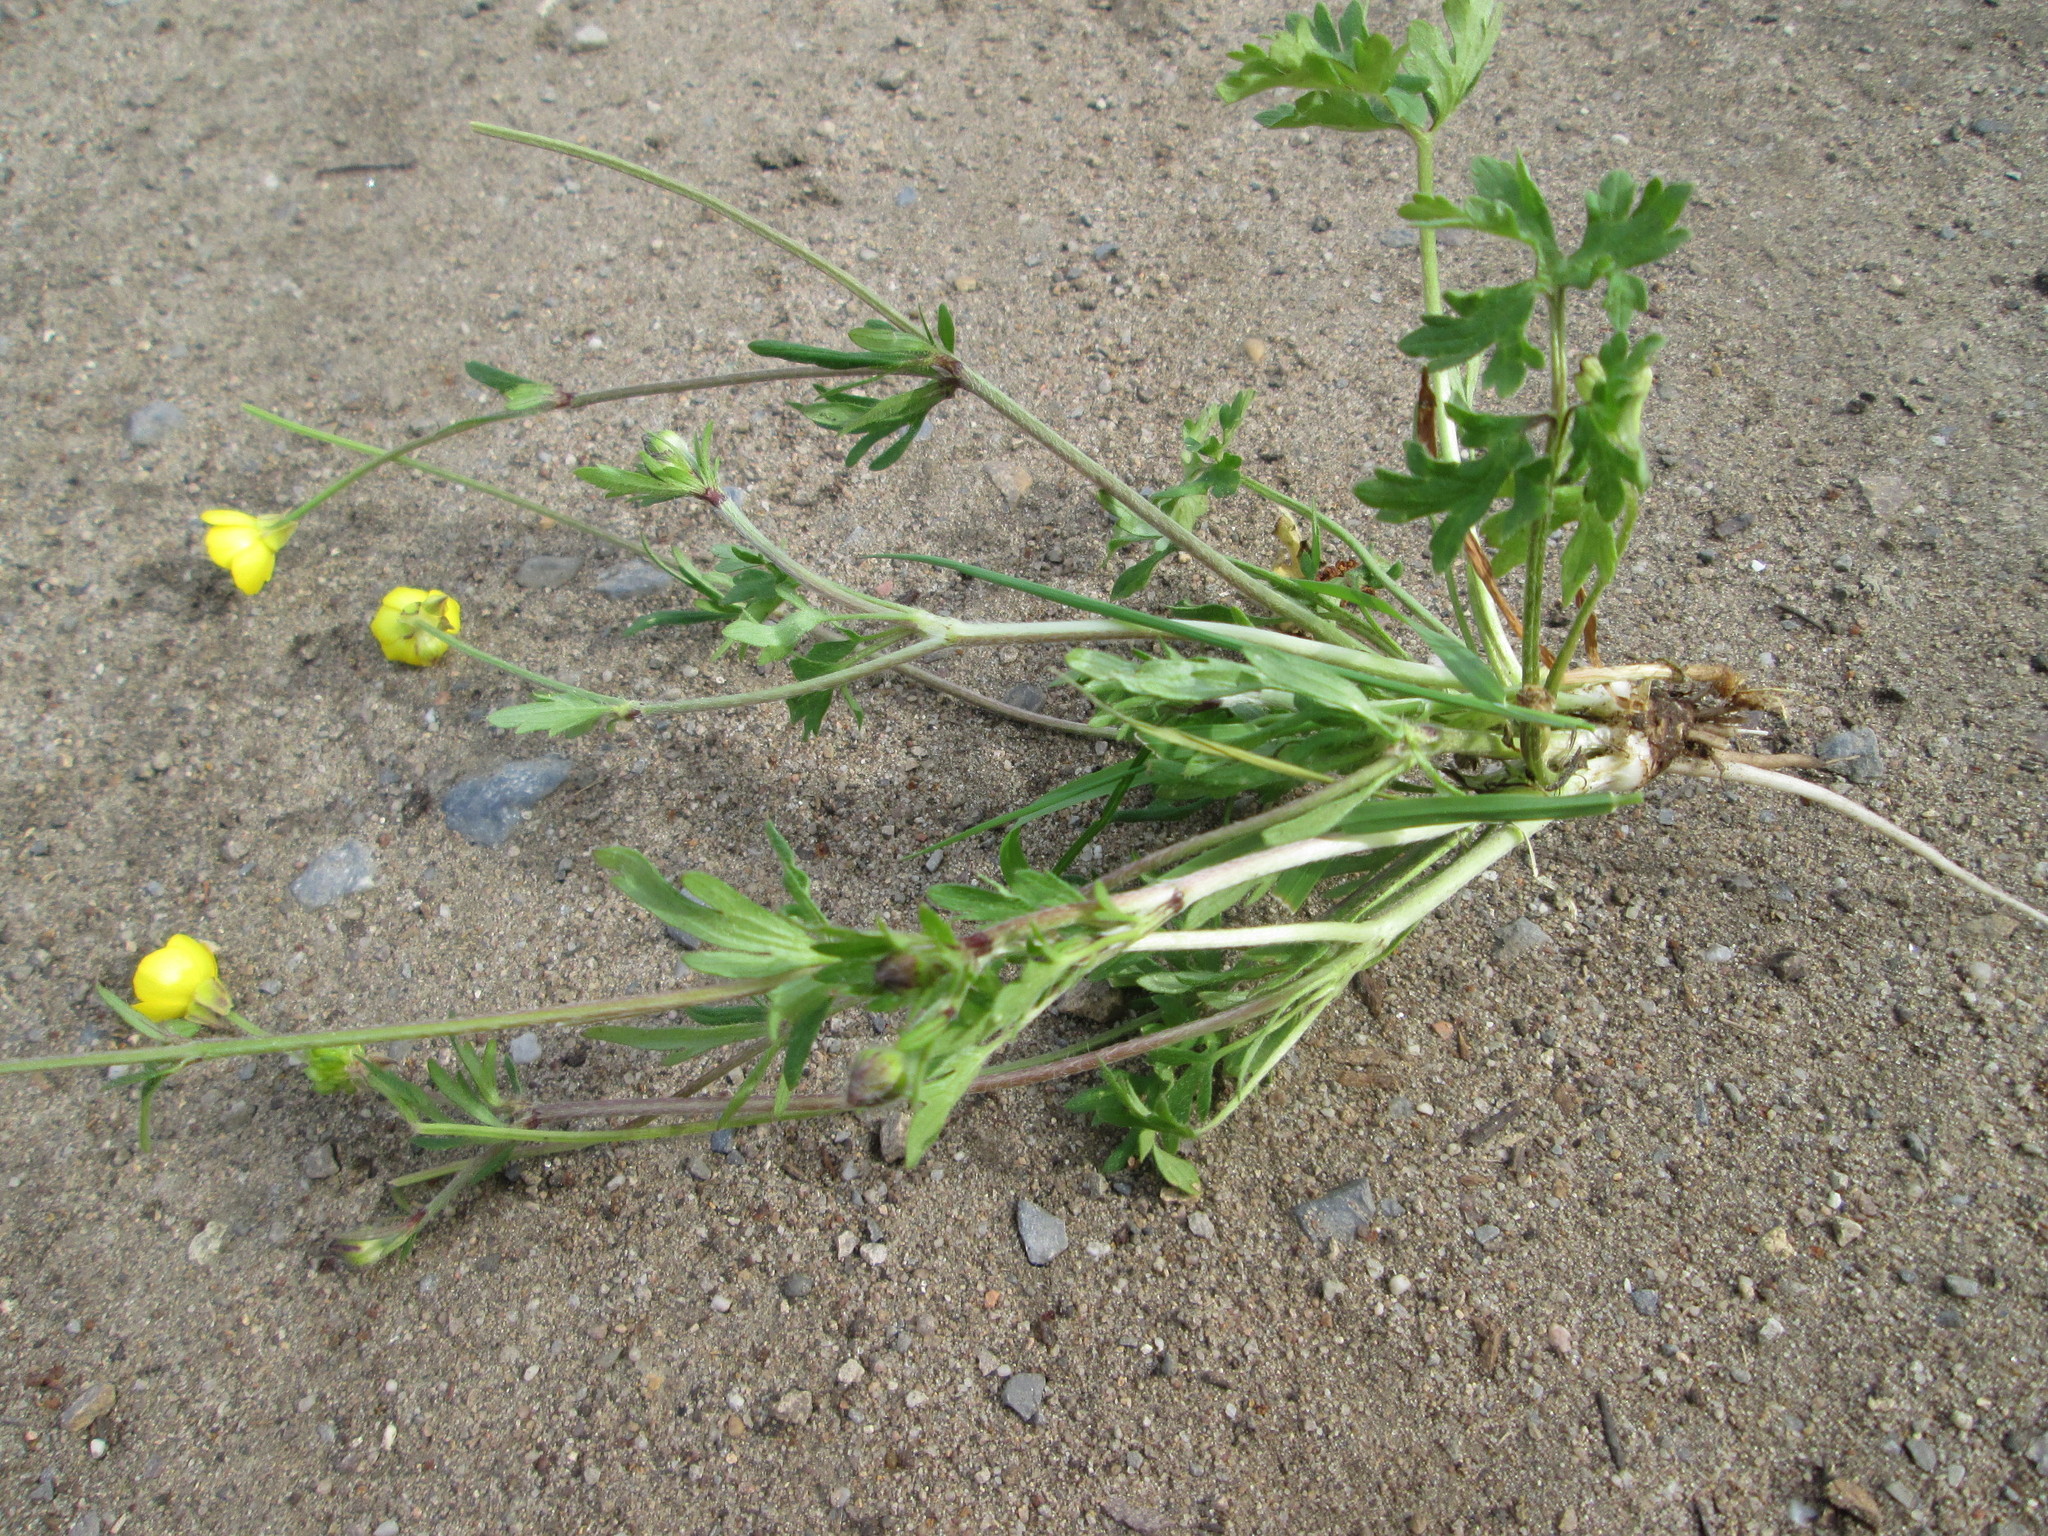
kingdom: Plantae
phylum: Tracheophyta
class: Magnoliopsida
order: Ranunculales
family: Ranunculaceae
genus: Ranunculus
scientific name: Ranunculus bulbosus
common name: Bulbous buttercup
